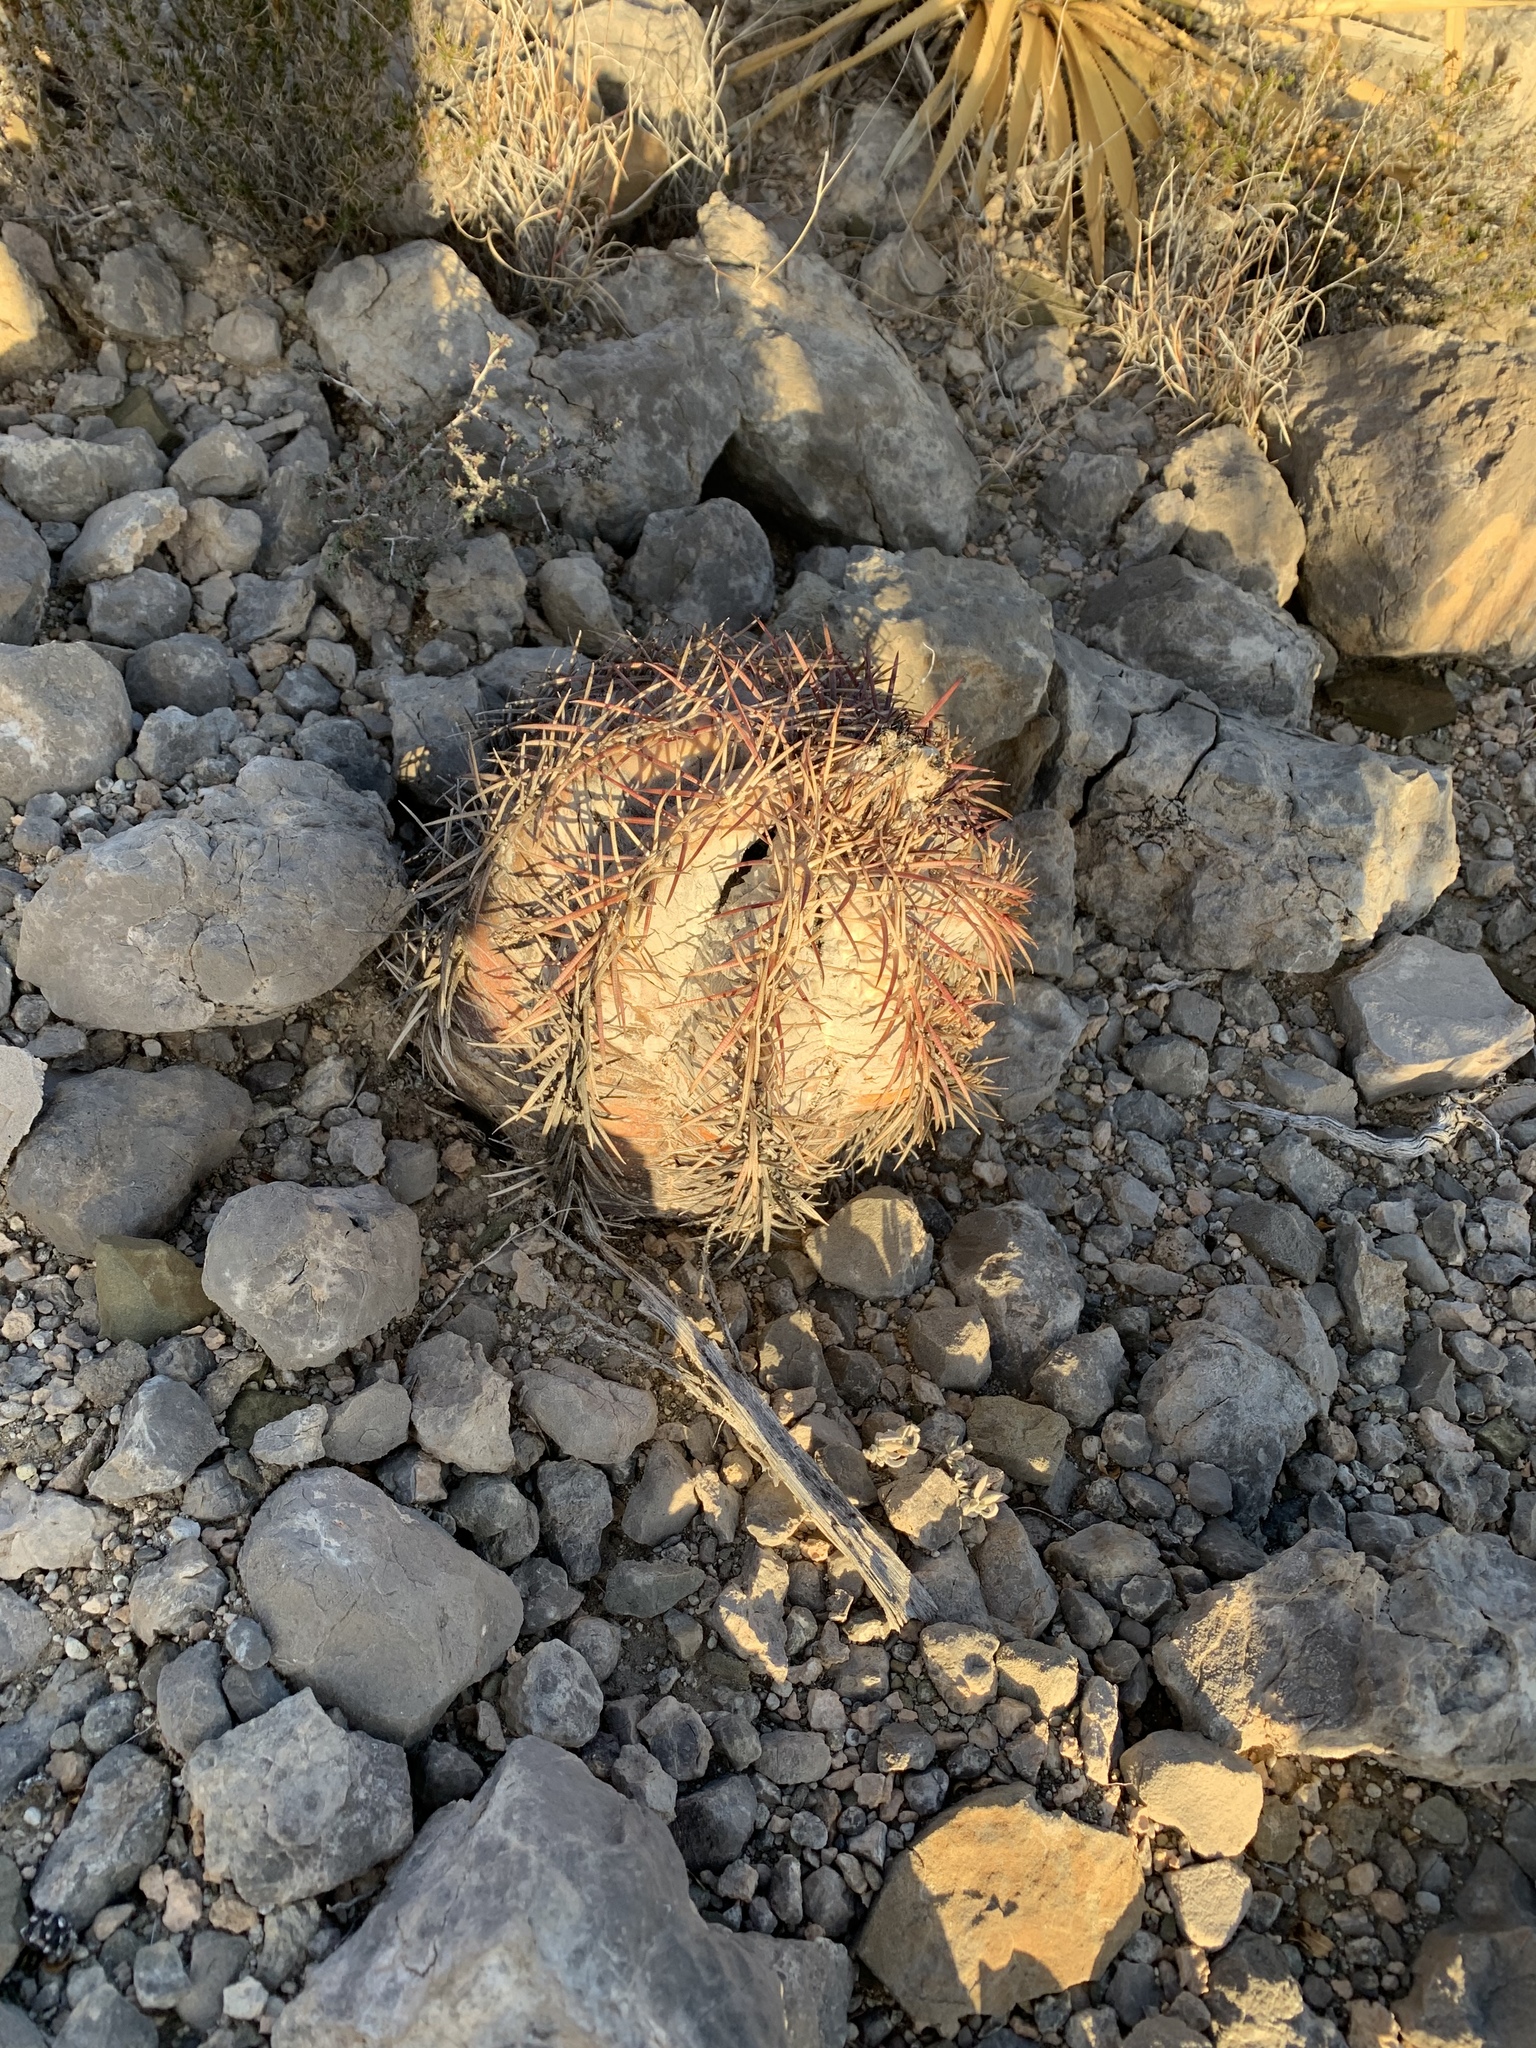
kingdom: Plantae
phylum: Tracheophyta
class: Magnoliopsida
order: Caryophyllales
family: Cactaceae
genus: Echinocactus
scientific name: Echinocactus horizonthalonius
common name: Devilshead
